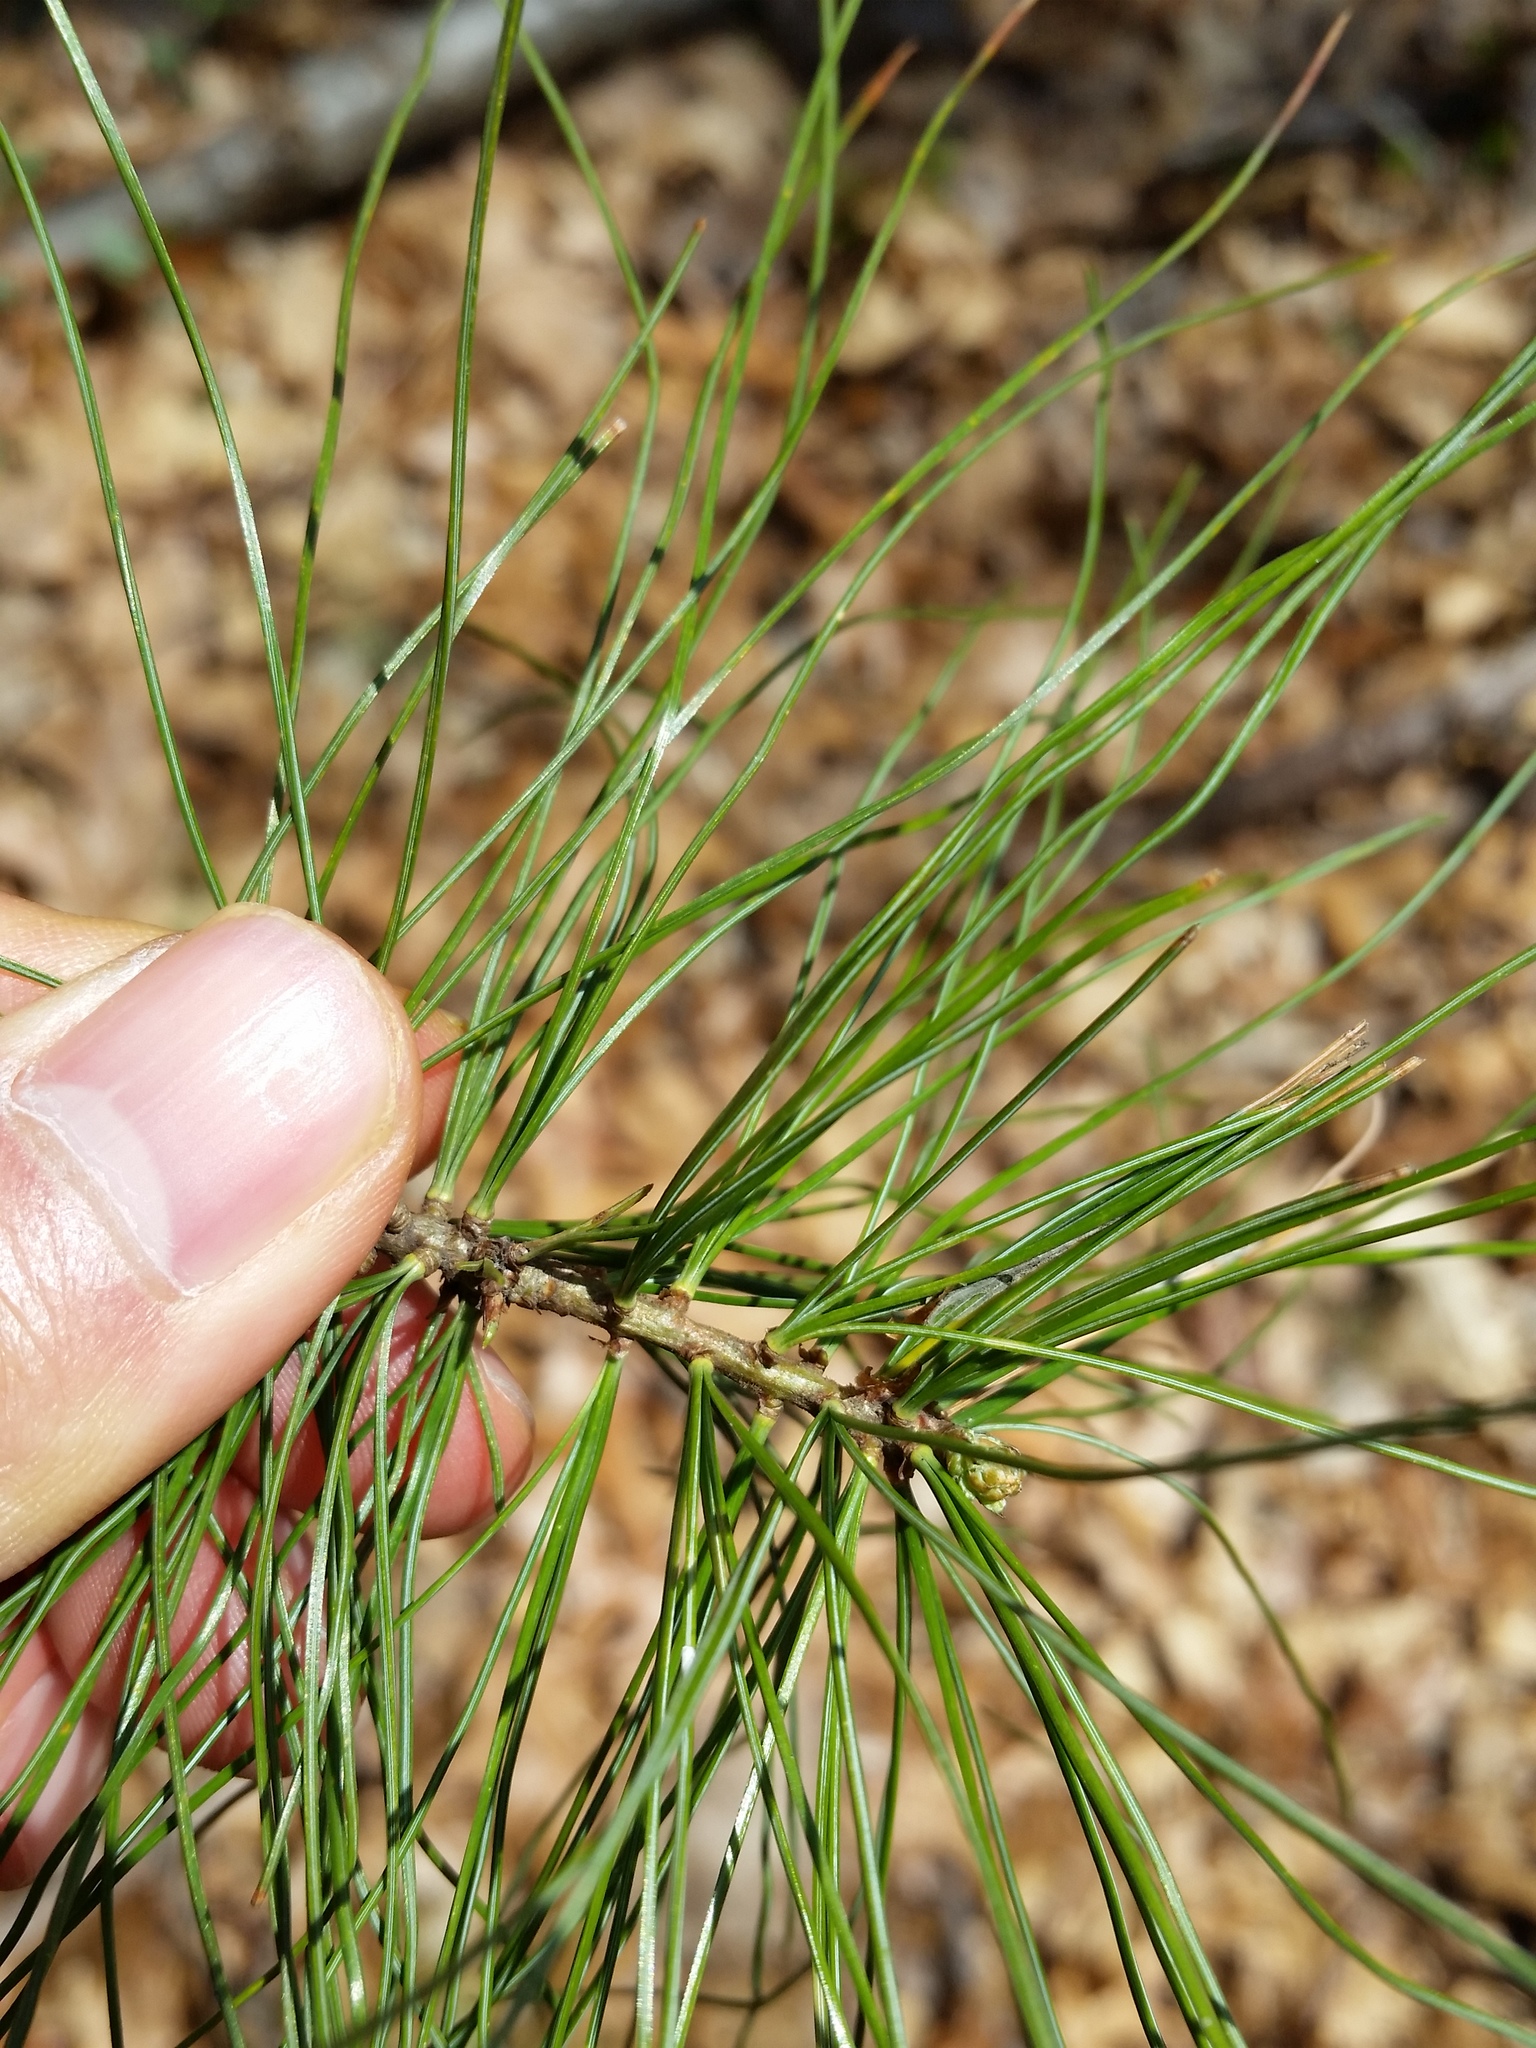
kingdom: Plantae
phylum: Tracheophyta
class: Pinopsida
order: Pinales
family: Pinaceae
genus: Pinus
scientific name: Pinus strobus
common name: Weymouth pine
